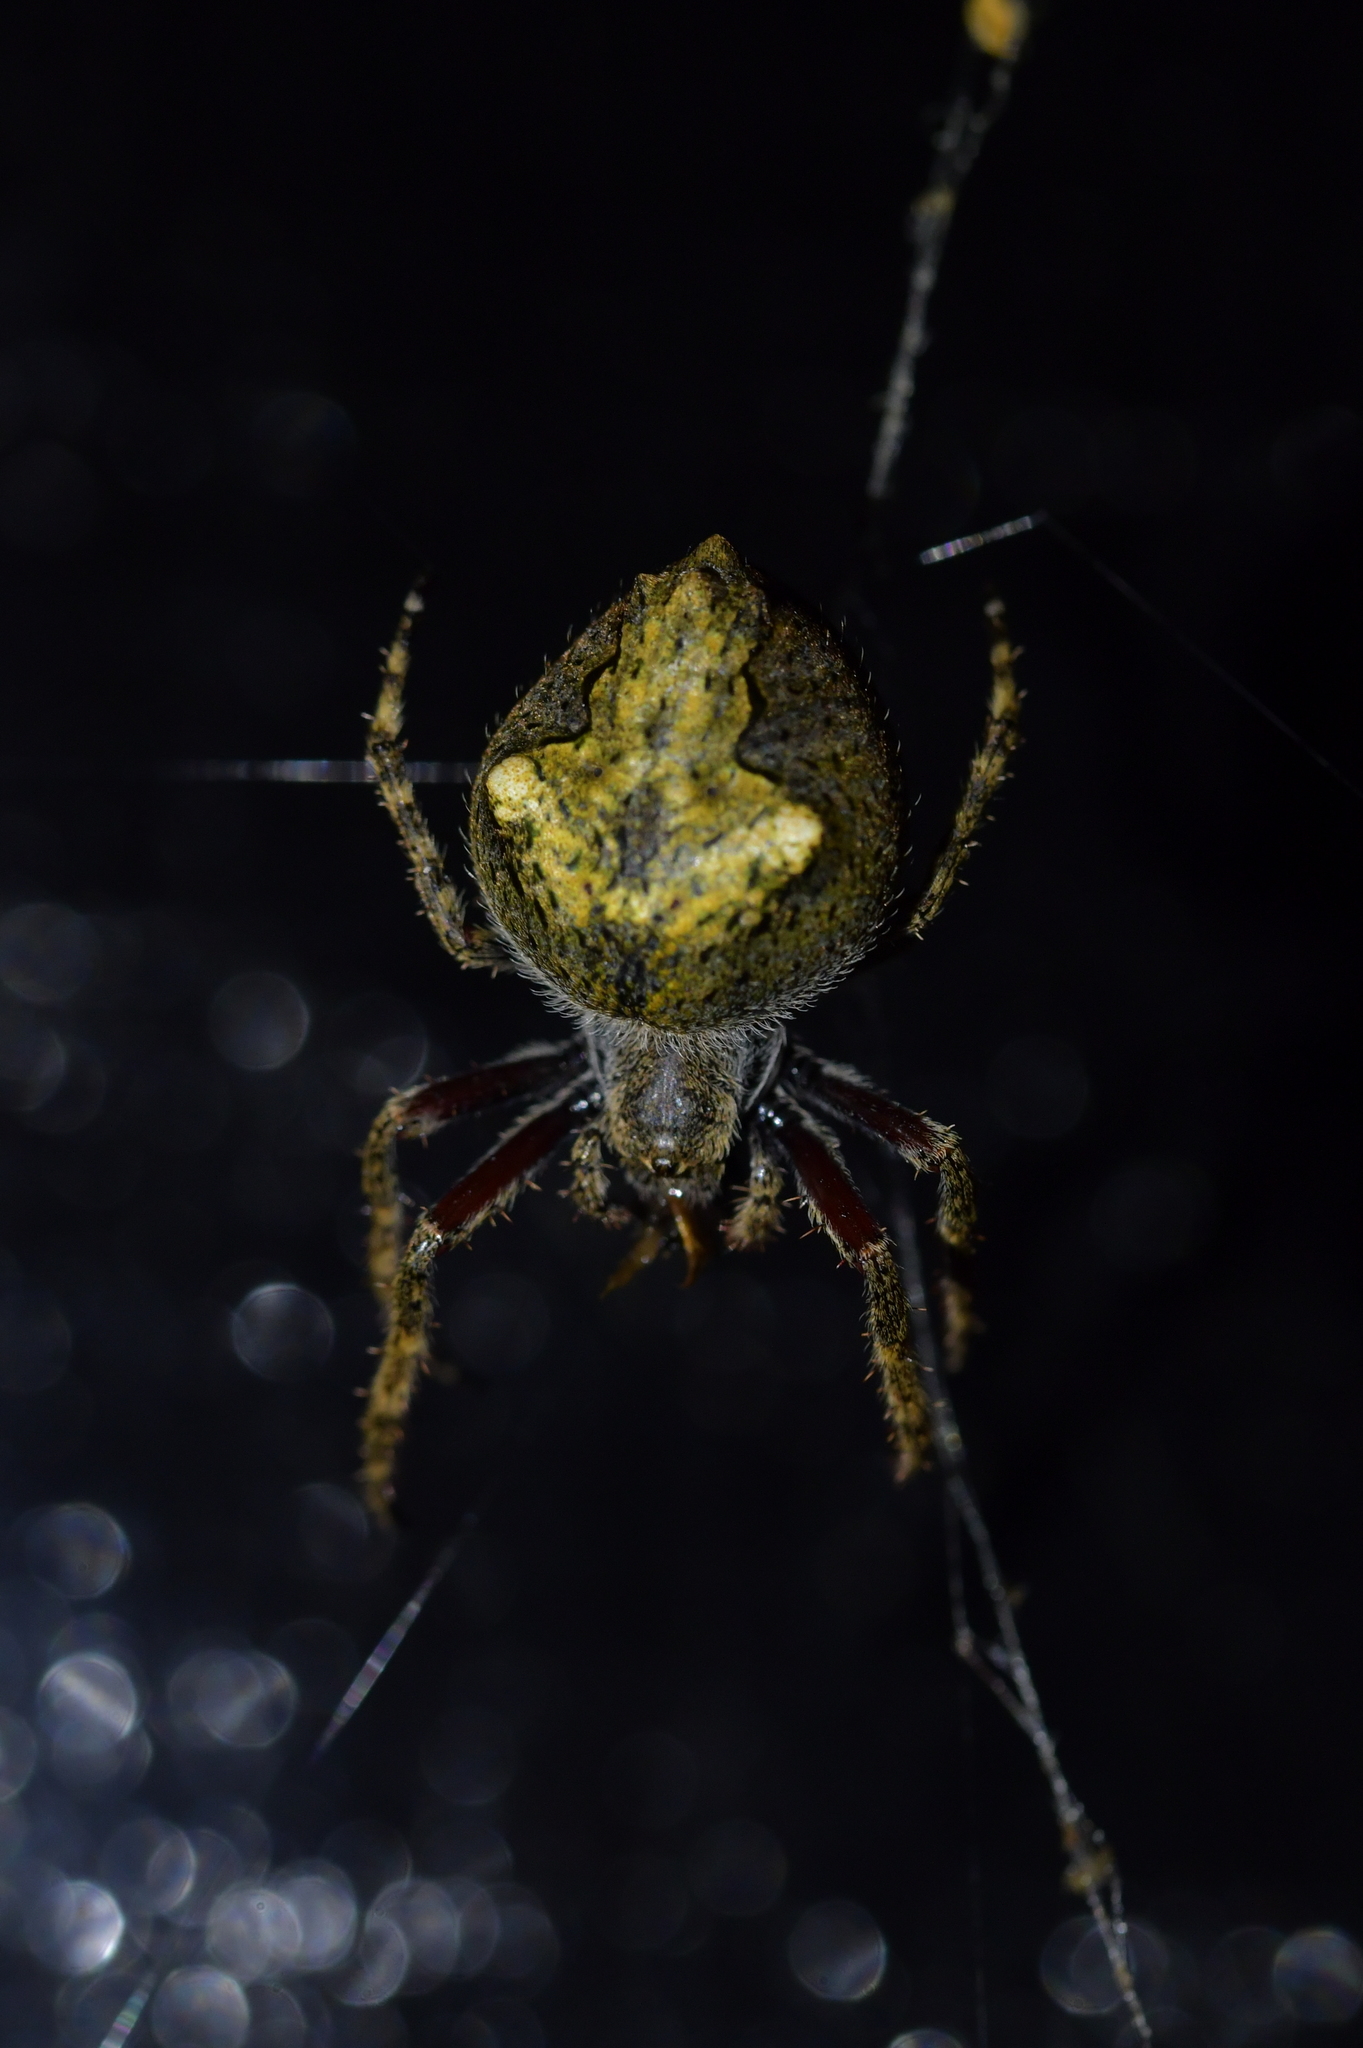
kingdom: Animalia
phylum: Arthropoda
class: Arachnida
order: Araneae
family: Araneidae
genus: Eriophora
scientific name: Eriophora pustulosa
